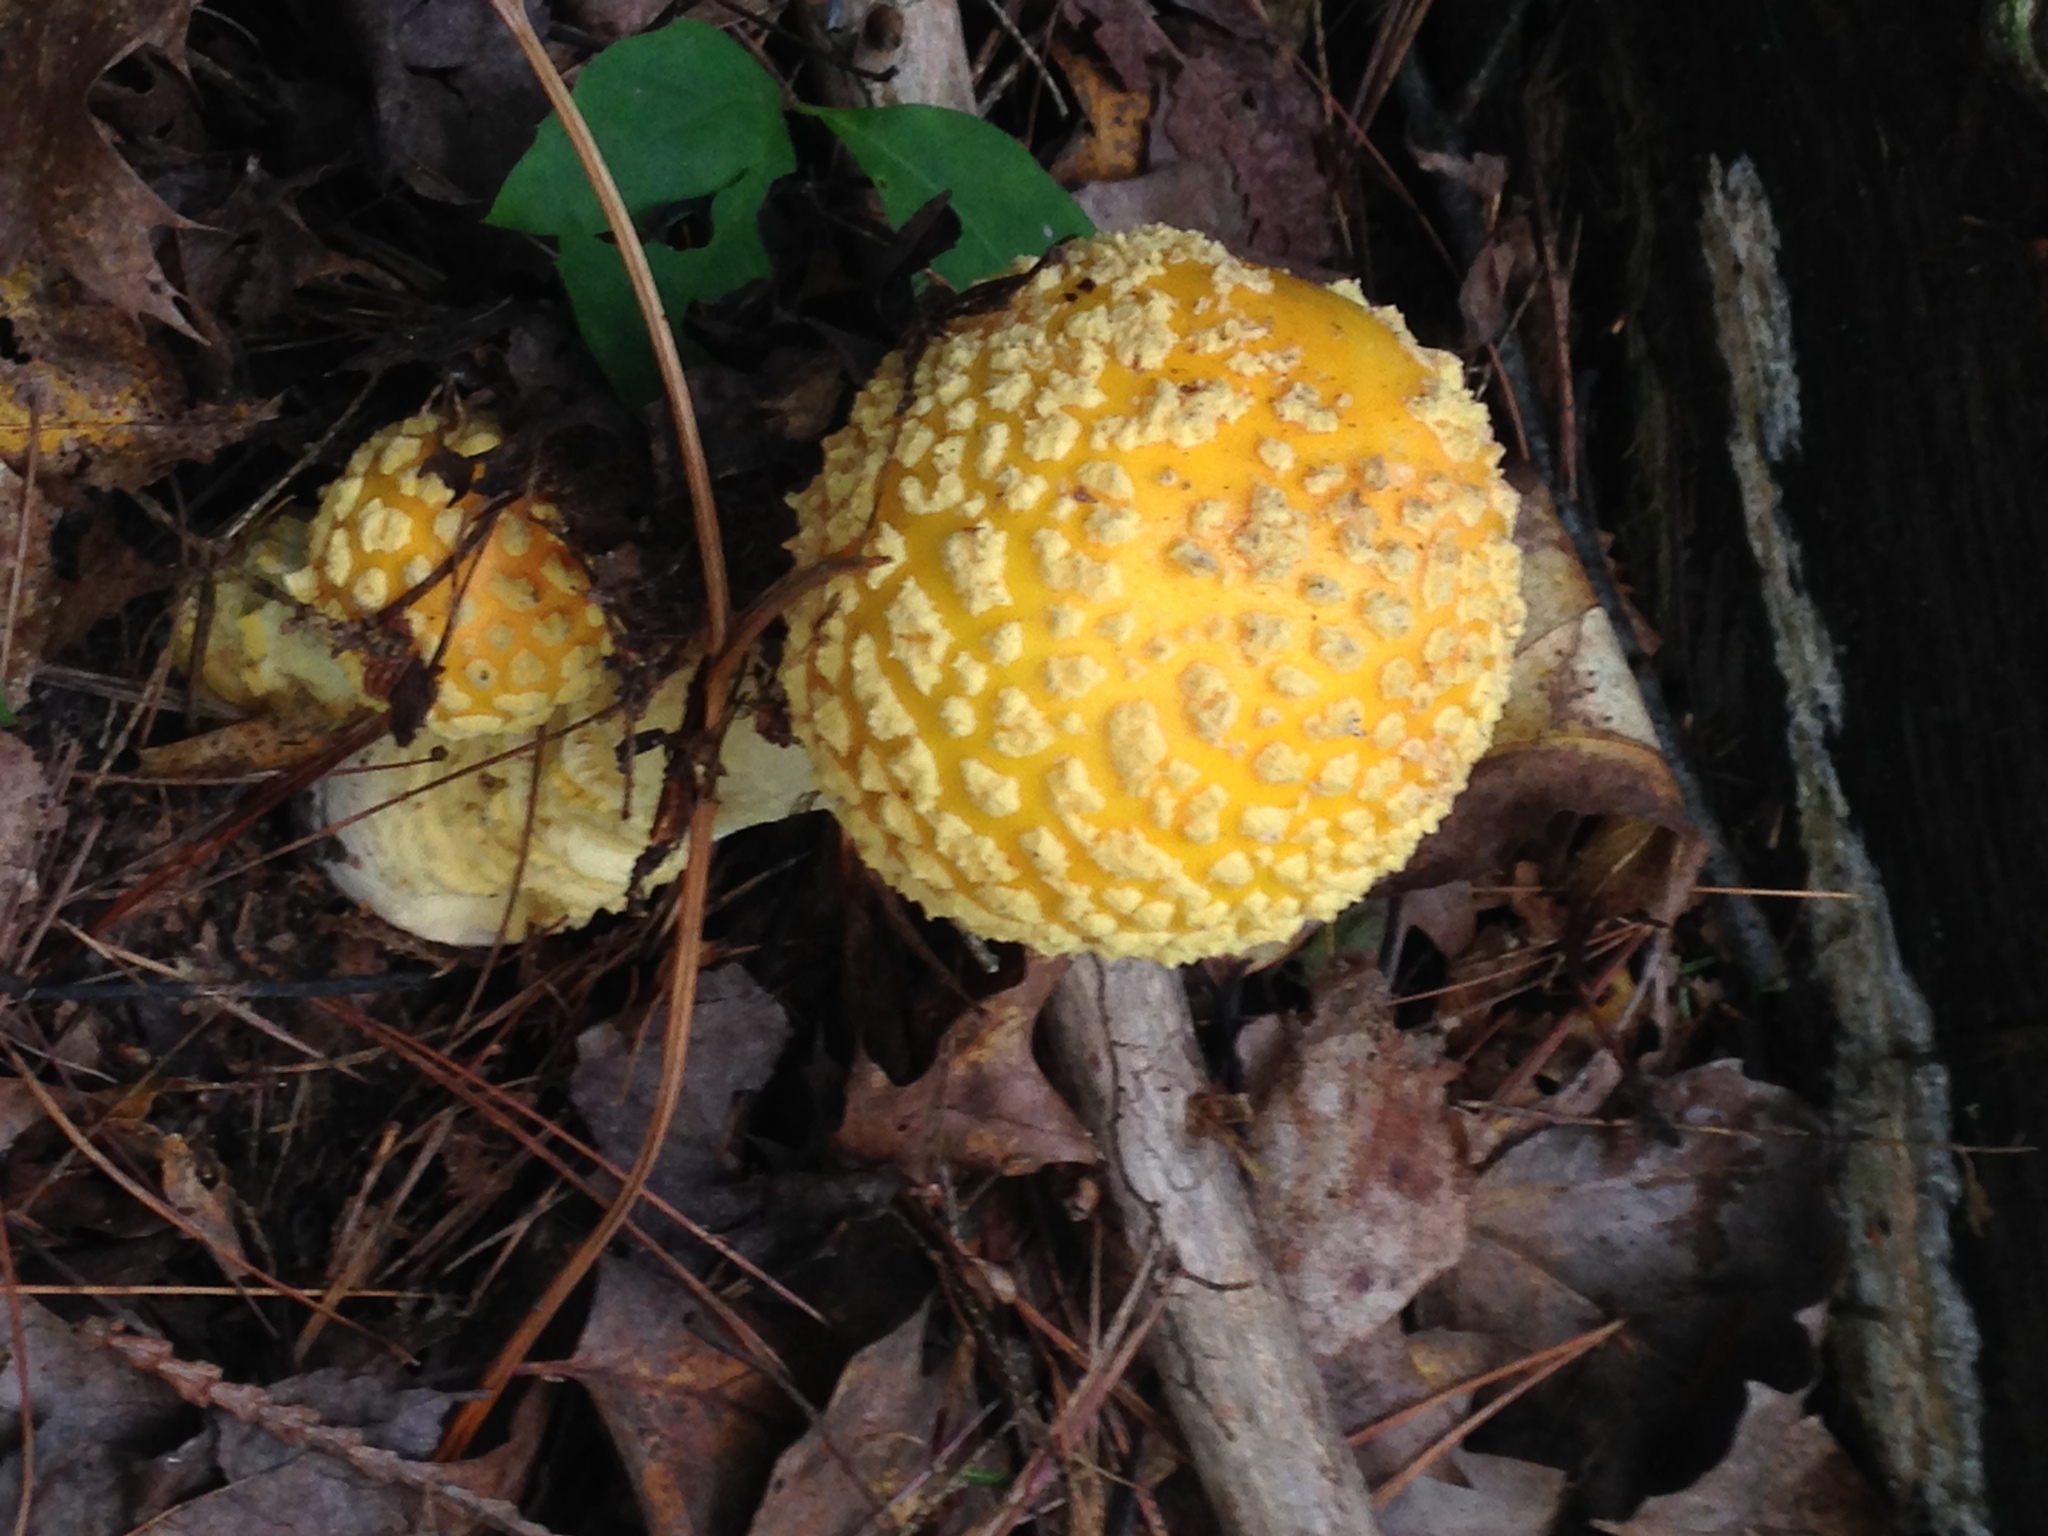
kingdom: Fungi
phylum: Basidiomycota
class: Agaricomycetes
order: Agaricales
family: Amanitaceae
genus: Amanita
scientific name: Amanita muscaria
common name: Fly agaric
